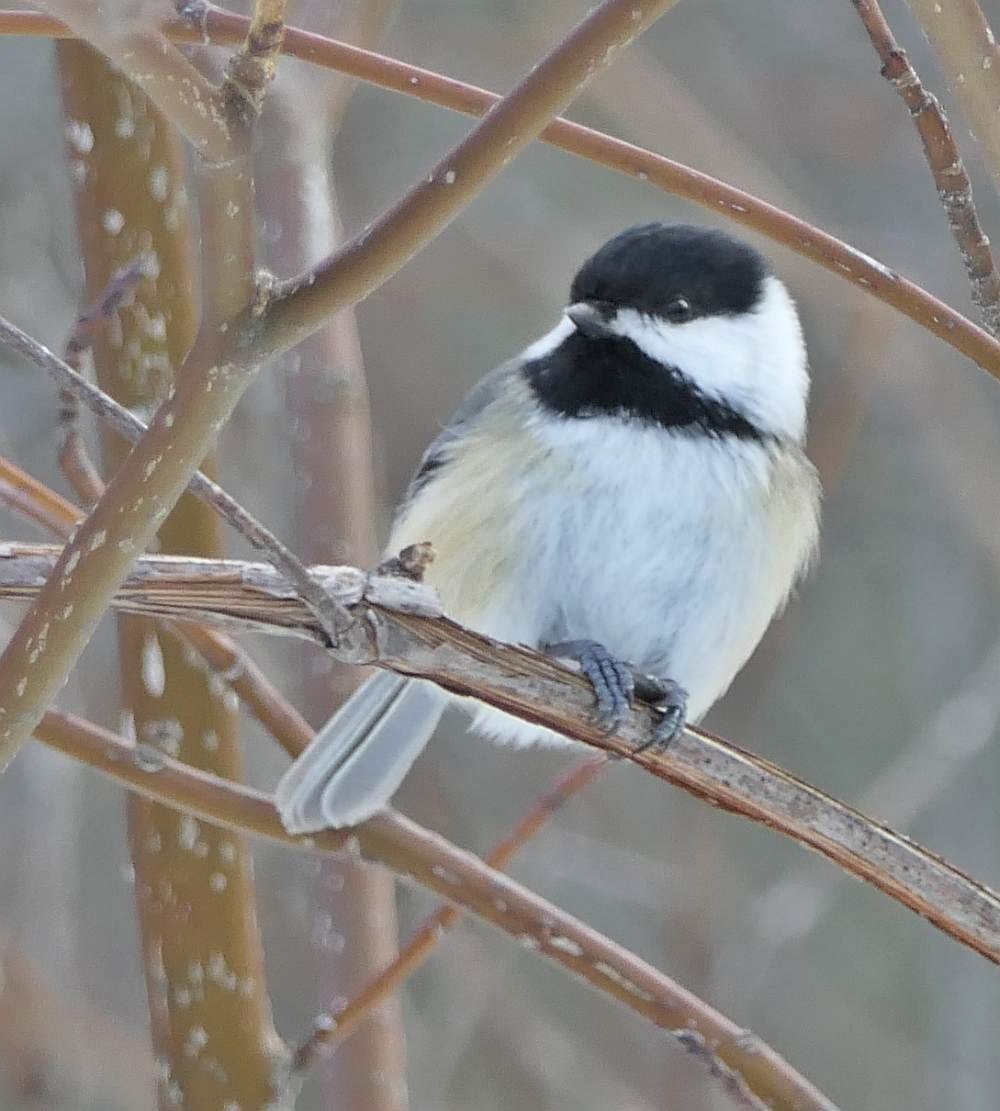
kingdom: Animalia
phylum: Chordata
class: Aves
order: Passeriformes
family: Paridae
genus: Poecile
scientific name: Poecile atricapillus
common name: Black-capped chickadee
